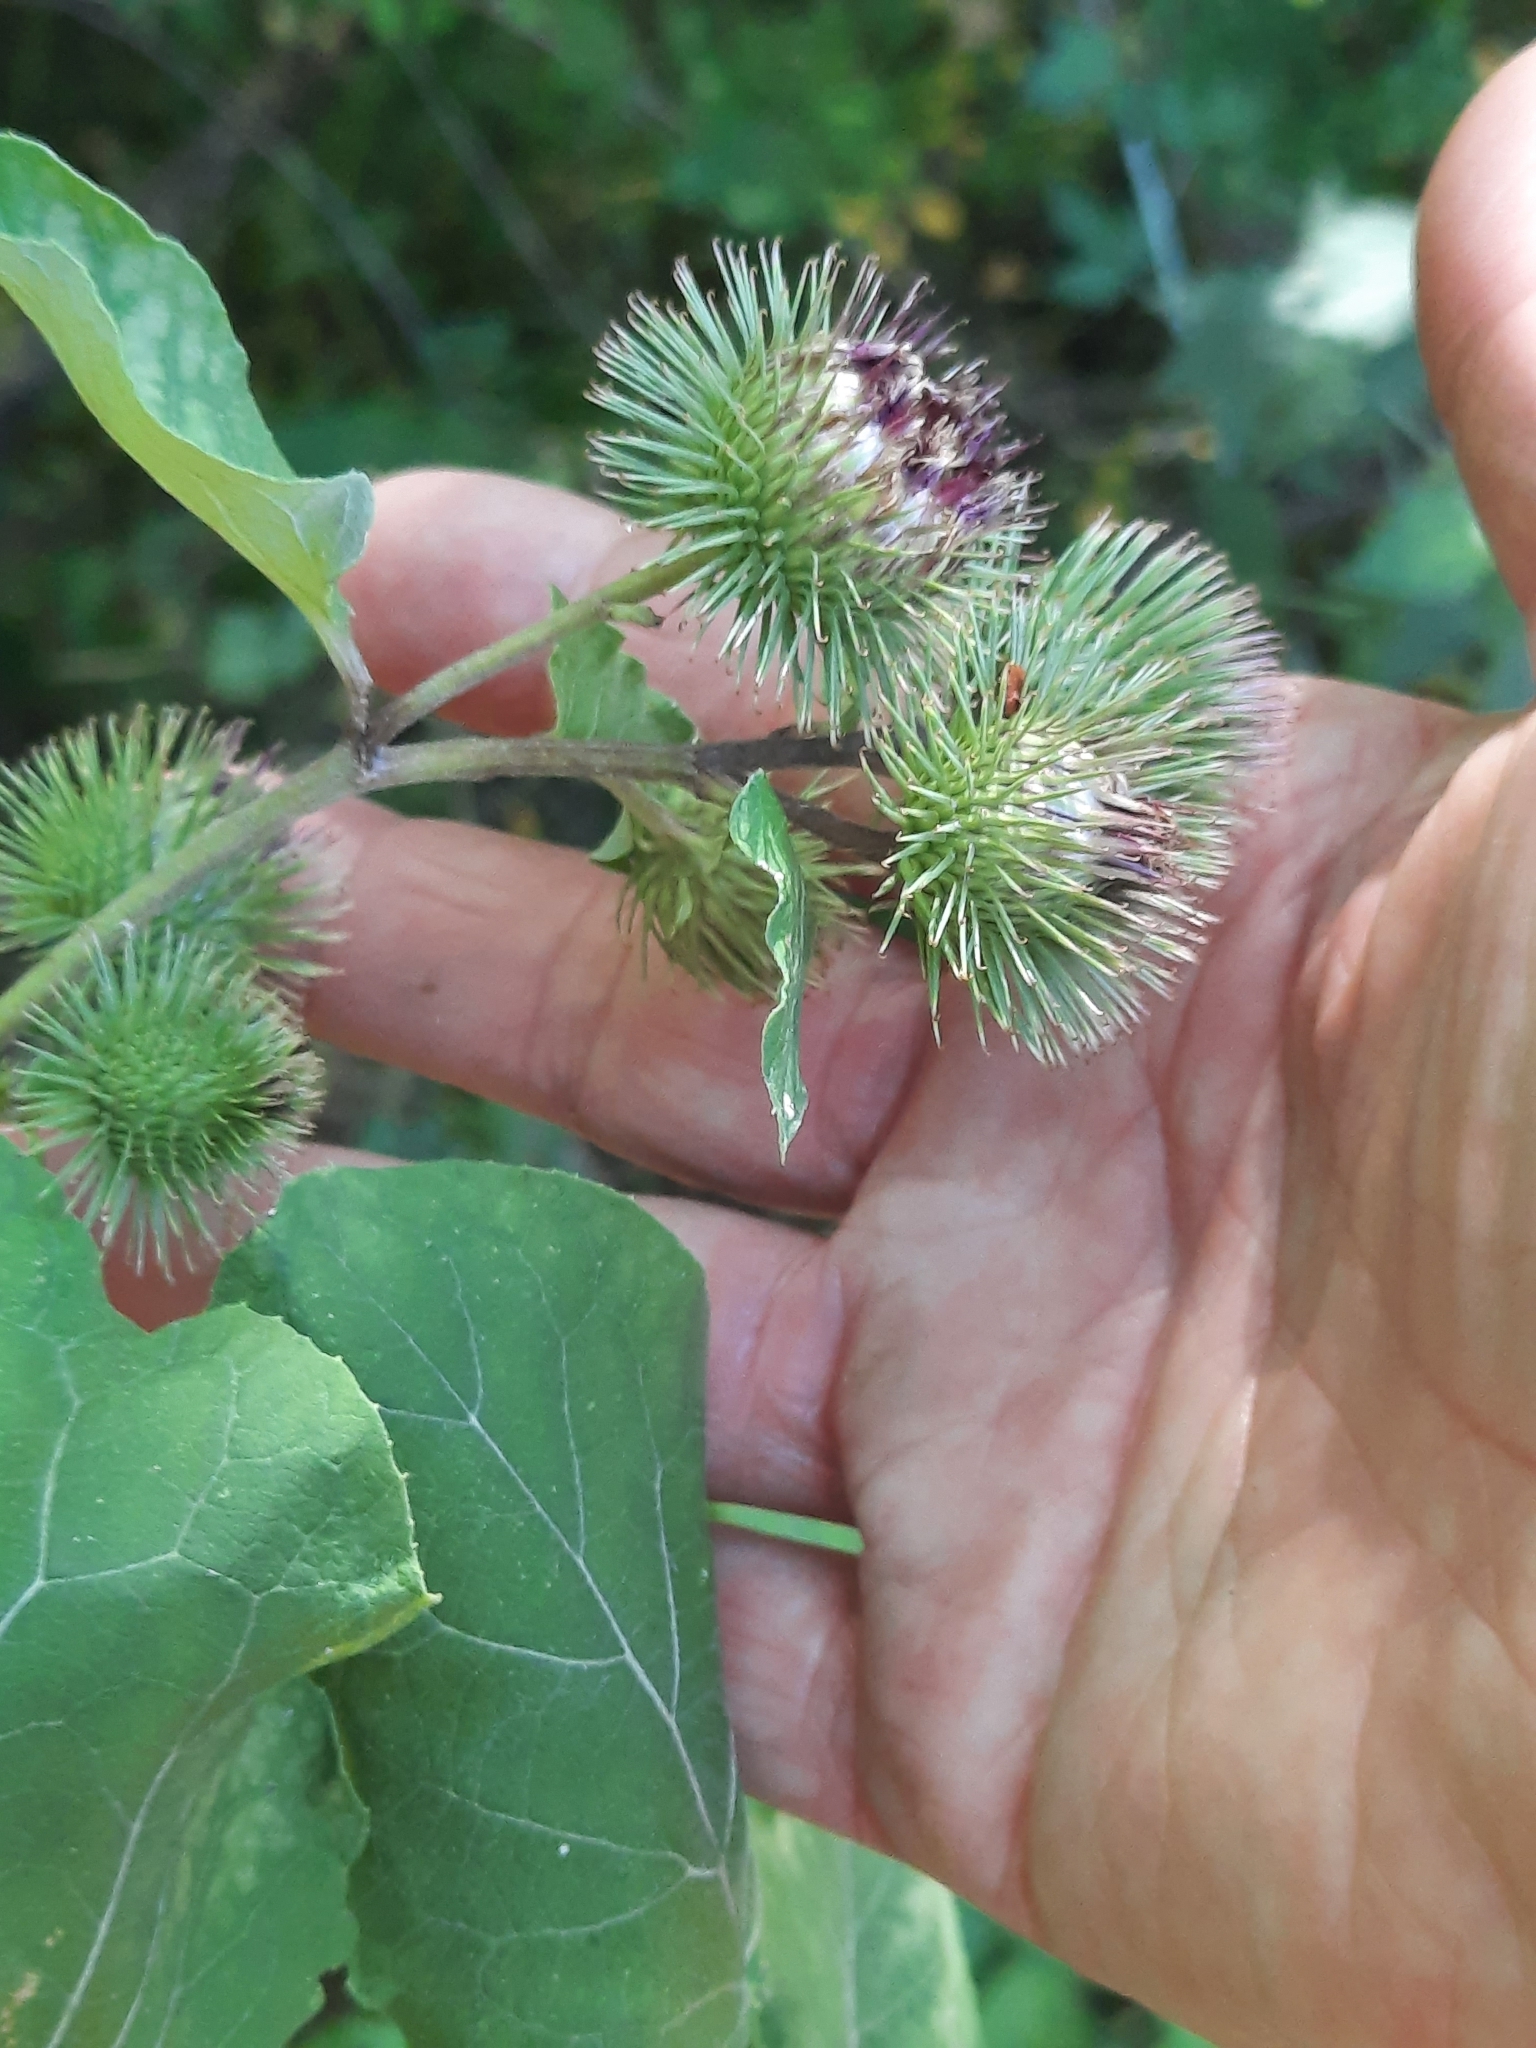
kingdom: Plantae
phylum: Tracheophyta
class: Magnoliopsida
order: Asterales
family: Asteraceae
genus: Arctium
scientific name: Arctium lappa
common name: Greater burdock
